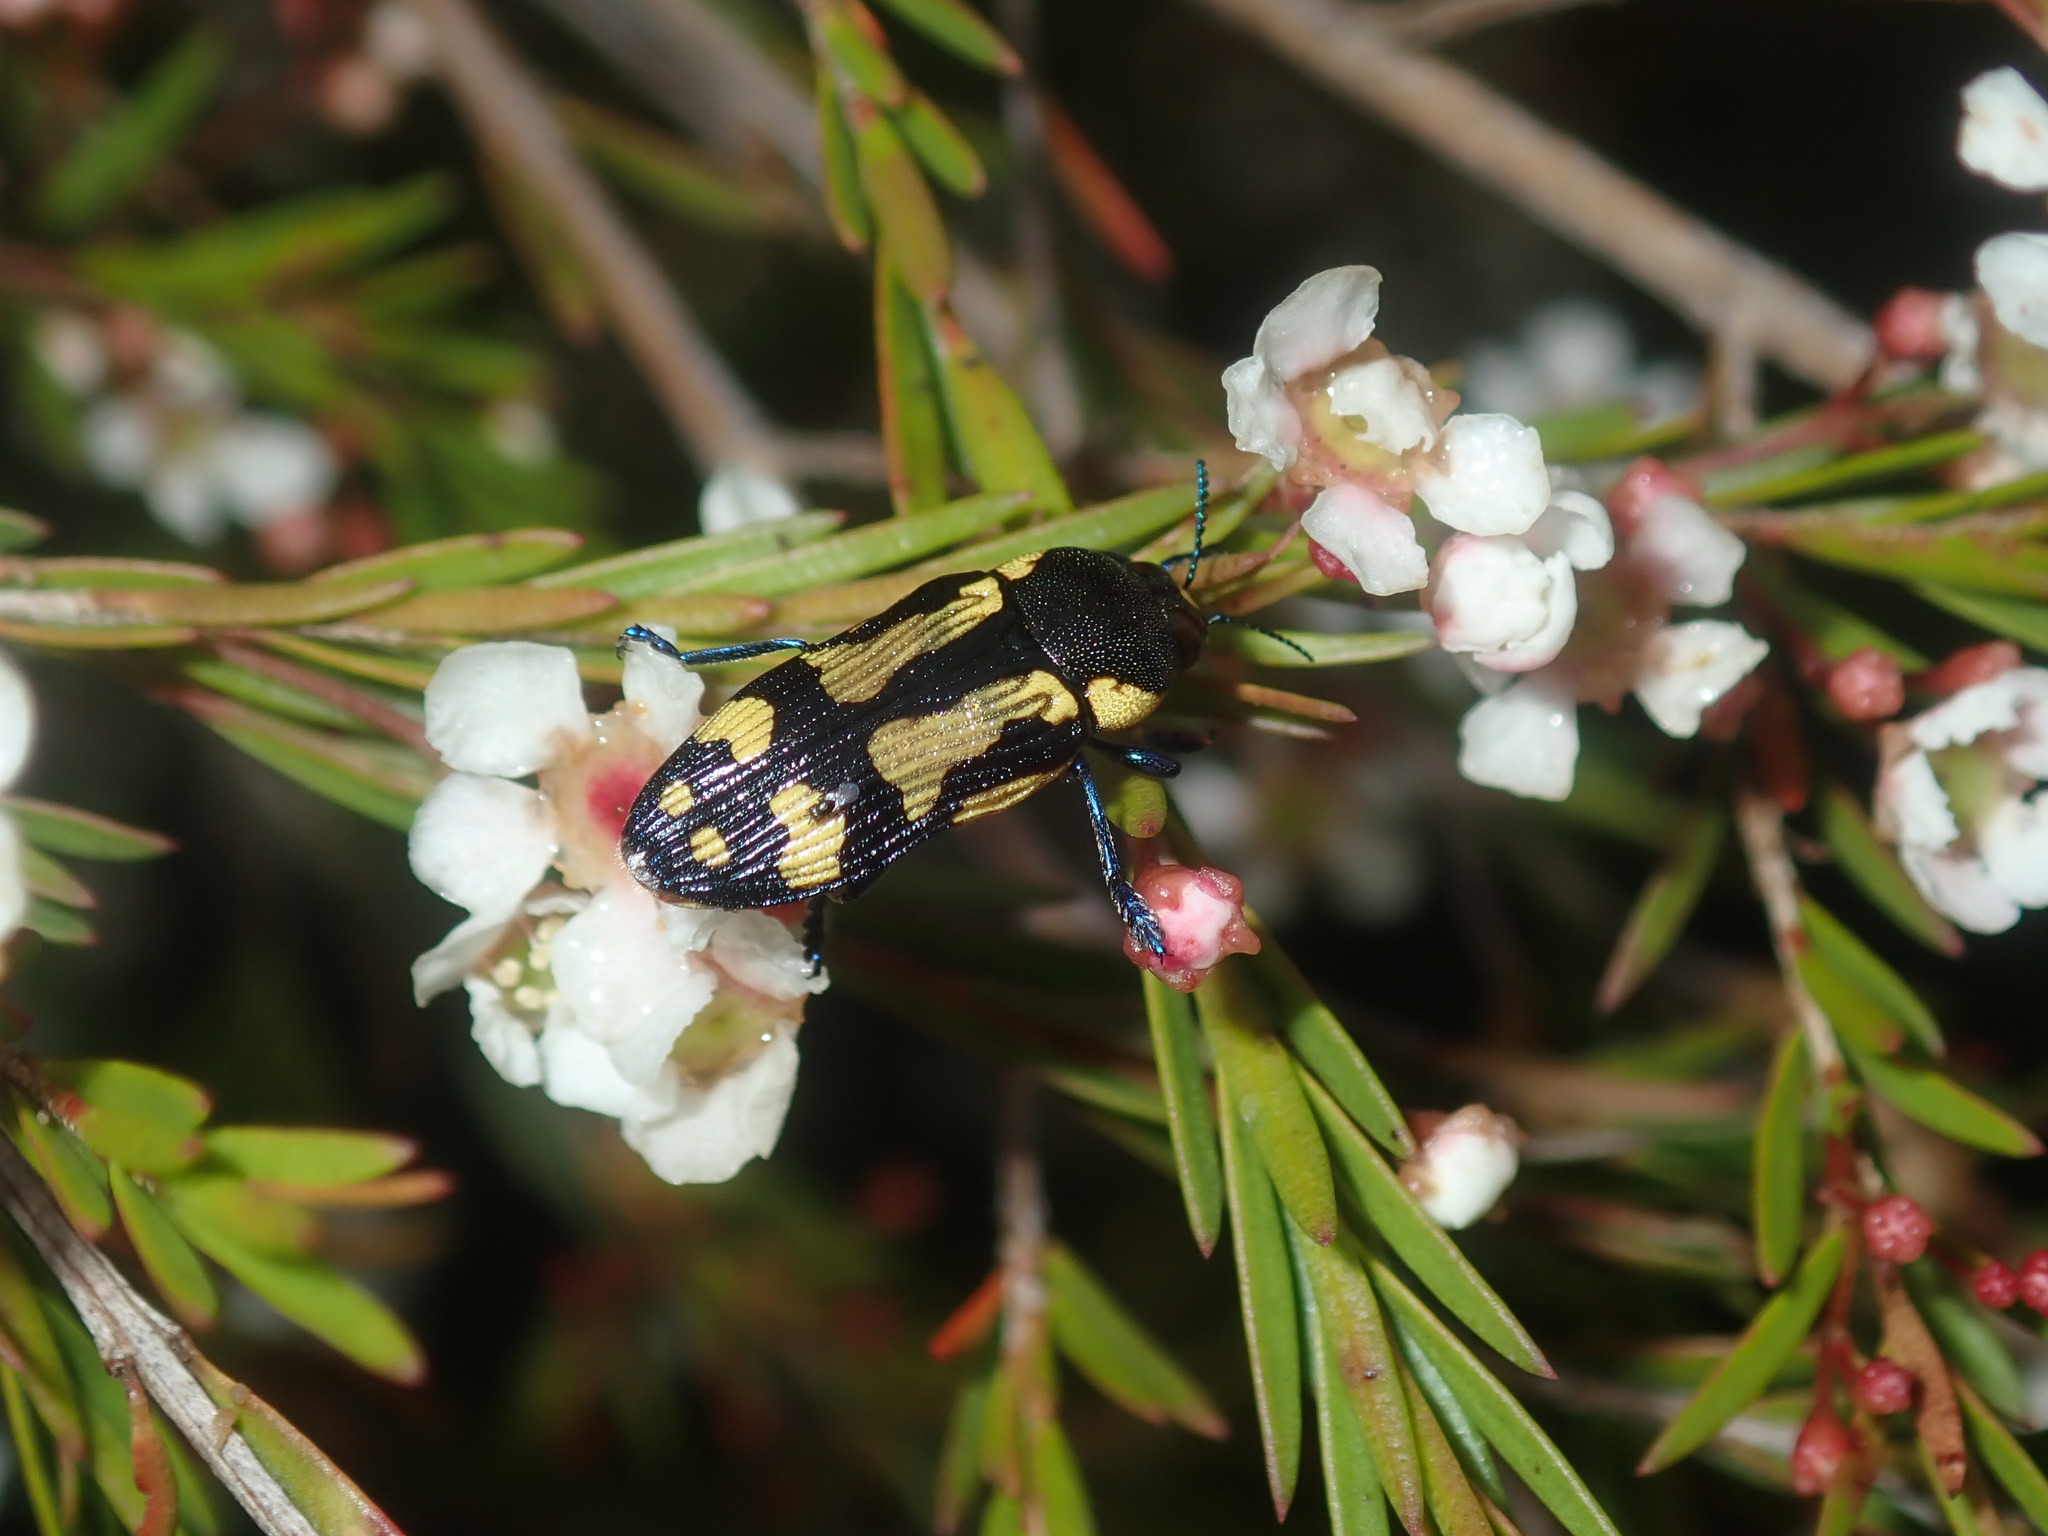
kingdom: Animalia
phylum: Arthropoda
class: Insecta
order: Coleoptera
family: Buprestidae
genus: Castiarina
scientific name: Castiarina octospilota
